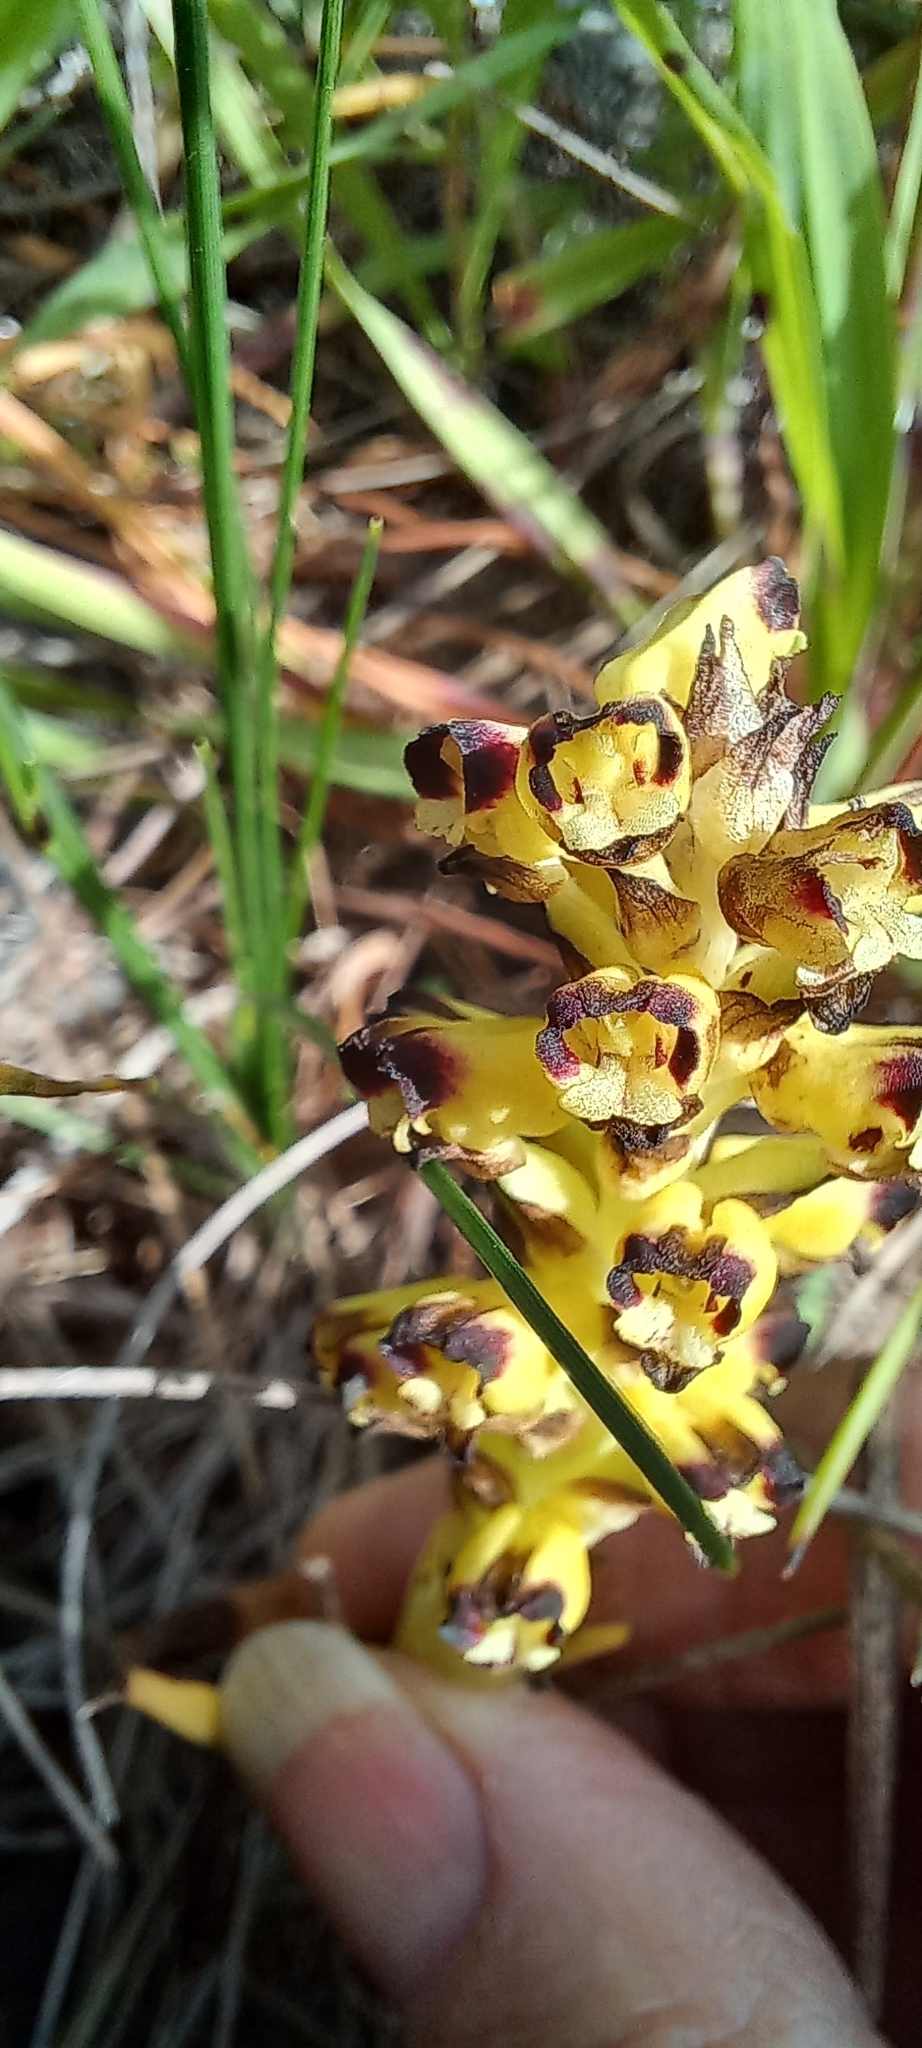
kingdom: Plantae
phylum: Tracheophyta
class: Liliopsida
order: Asparagales
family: Orchidaceae
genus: Corycium
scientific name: Corycium orobanchoides
